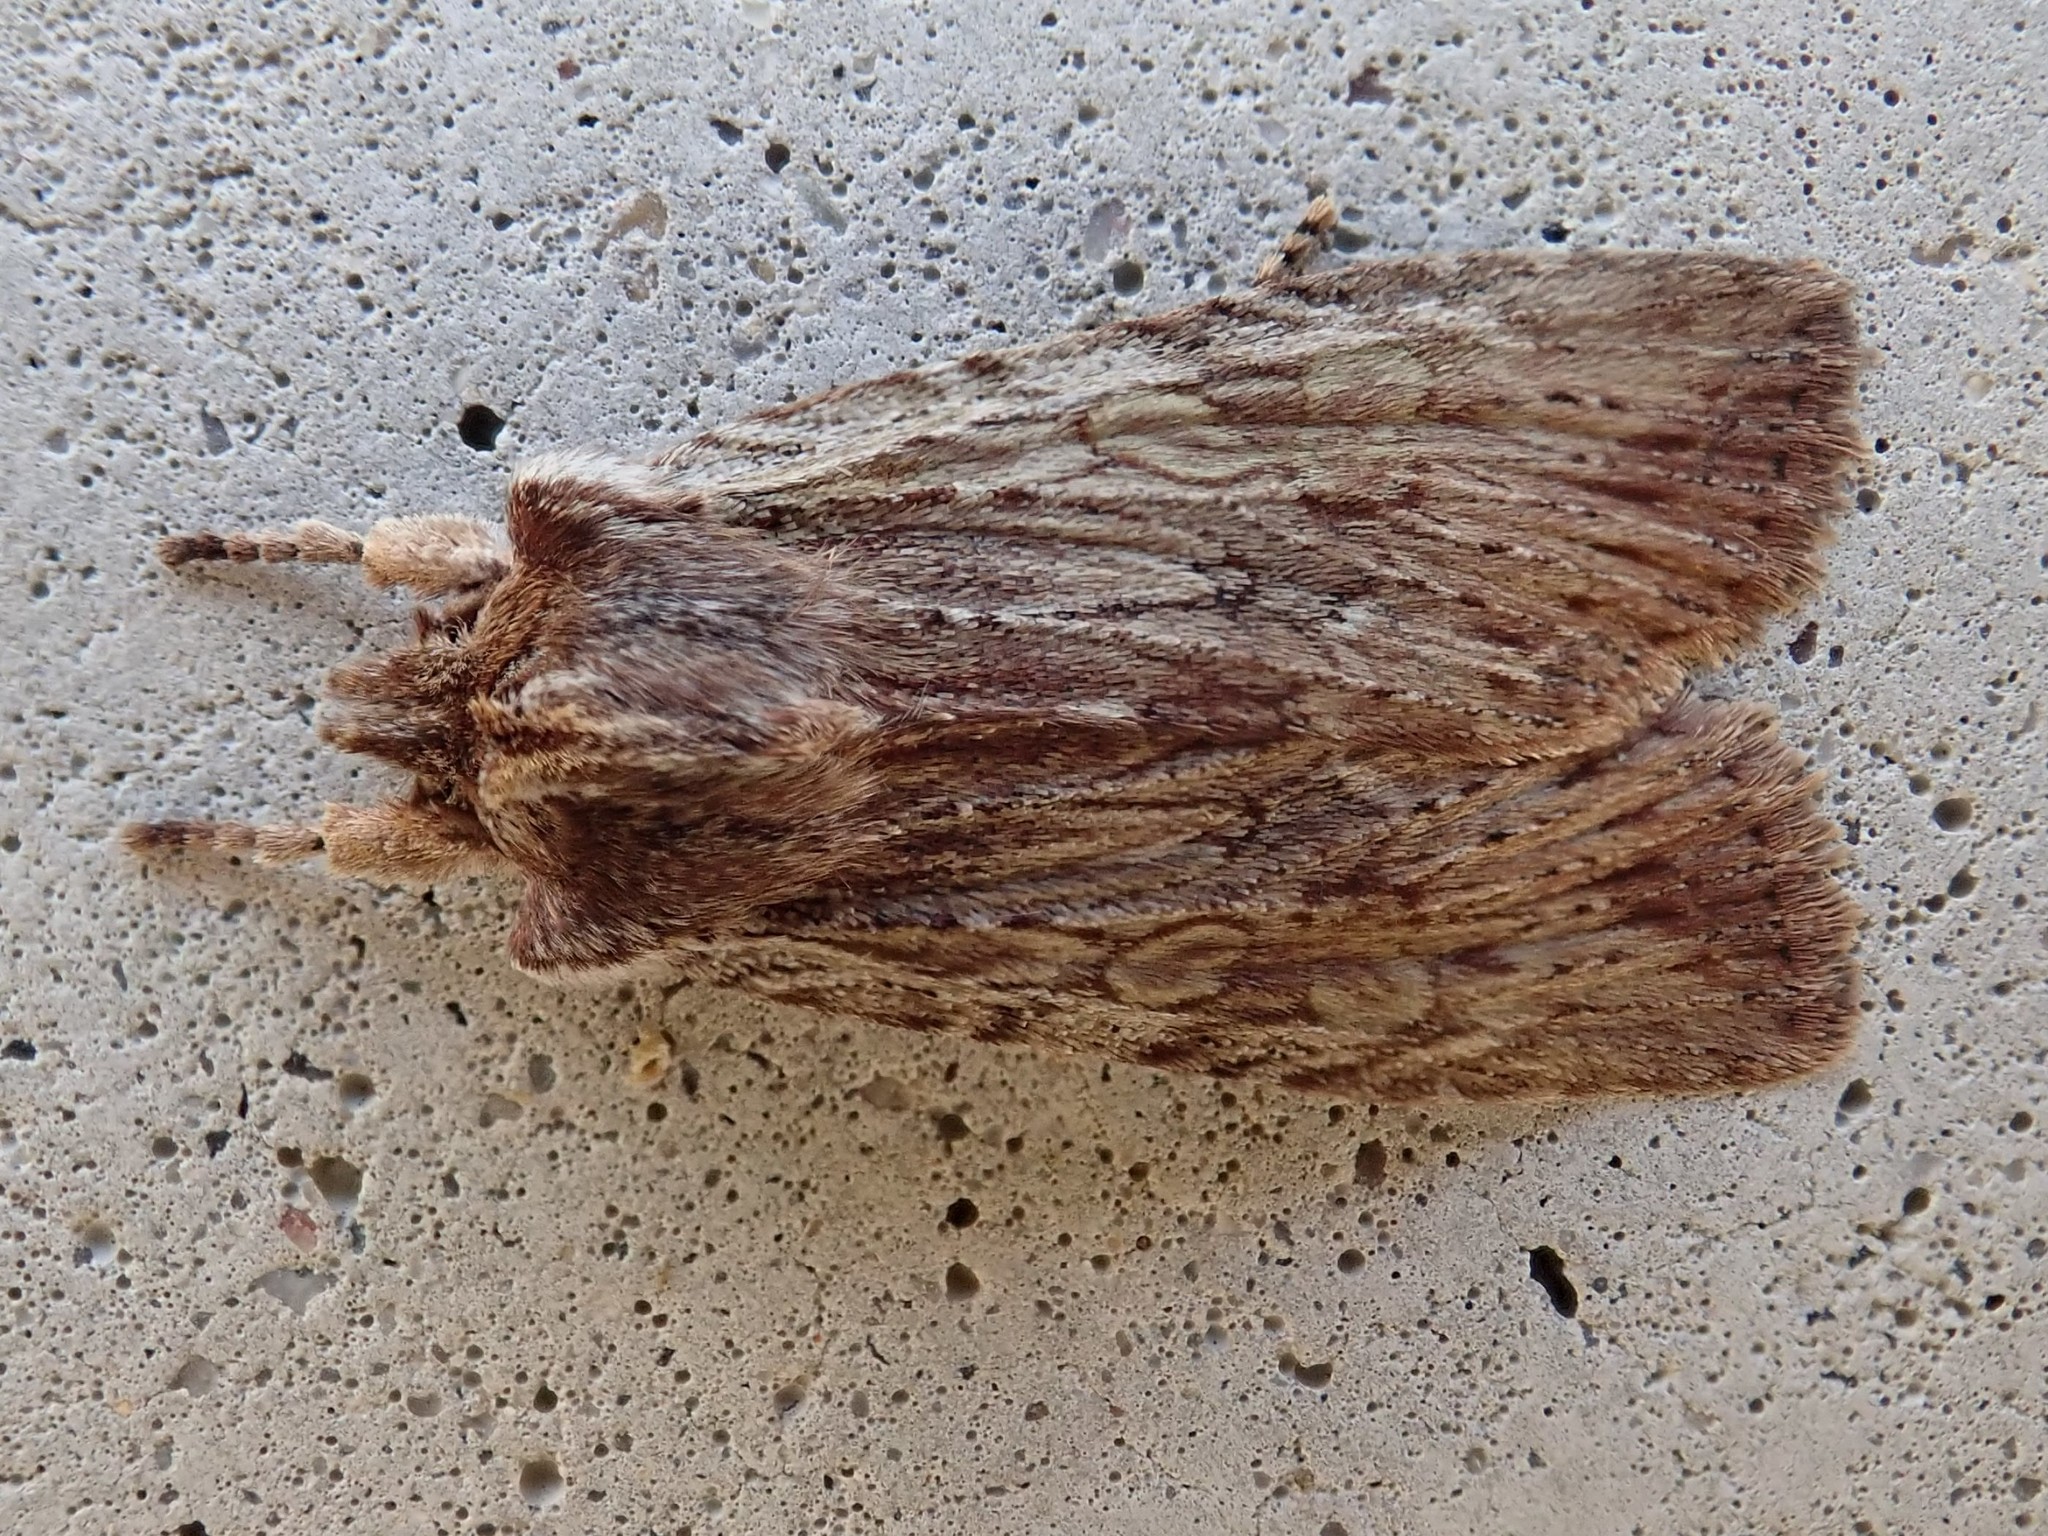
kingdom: Animalia
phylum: Arthropoda
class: Insecta
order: Lepidoptera
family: Noctuidae
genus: Lithophane
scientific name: Lithophane petulca
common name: Wanton pinion
